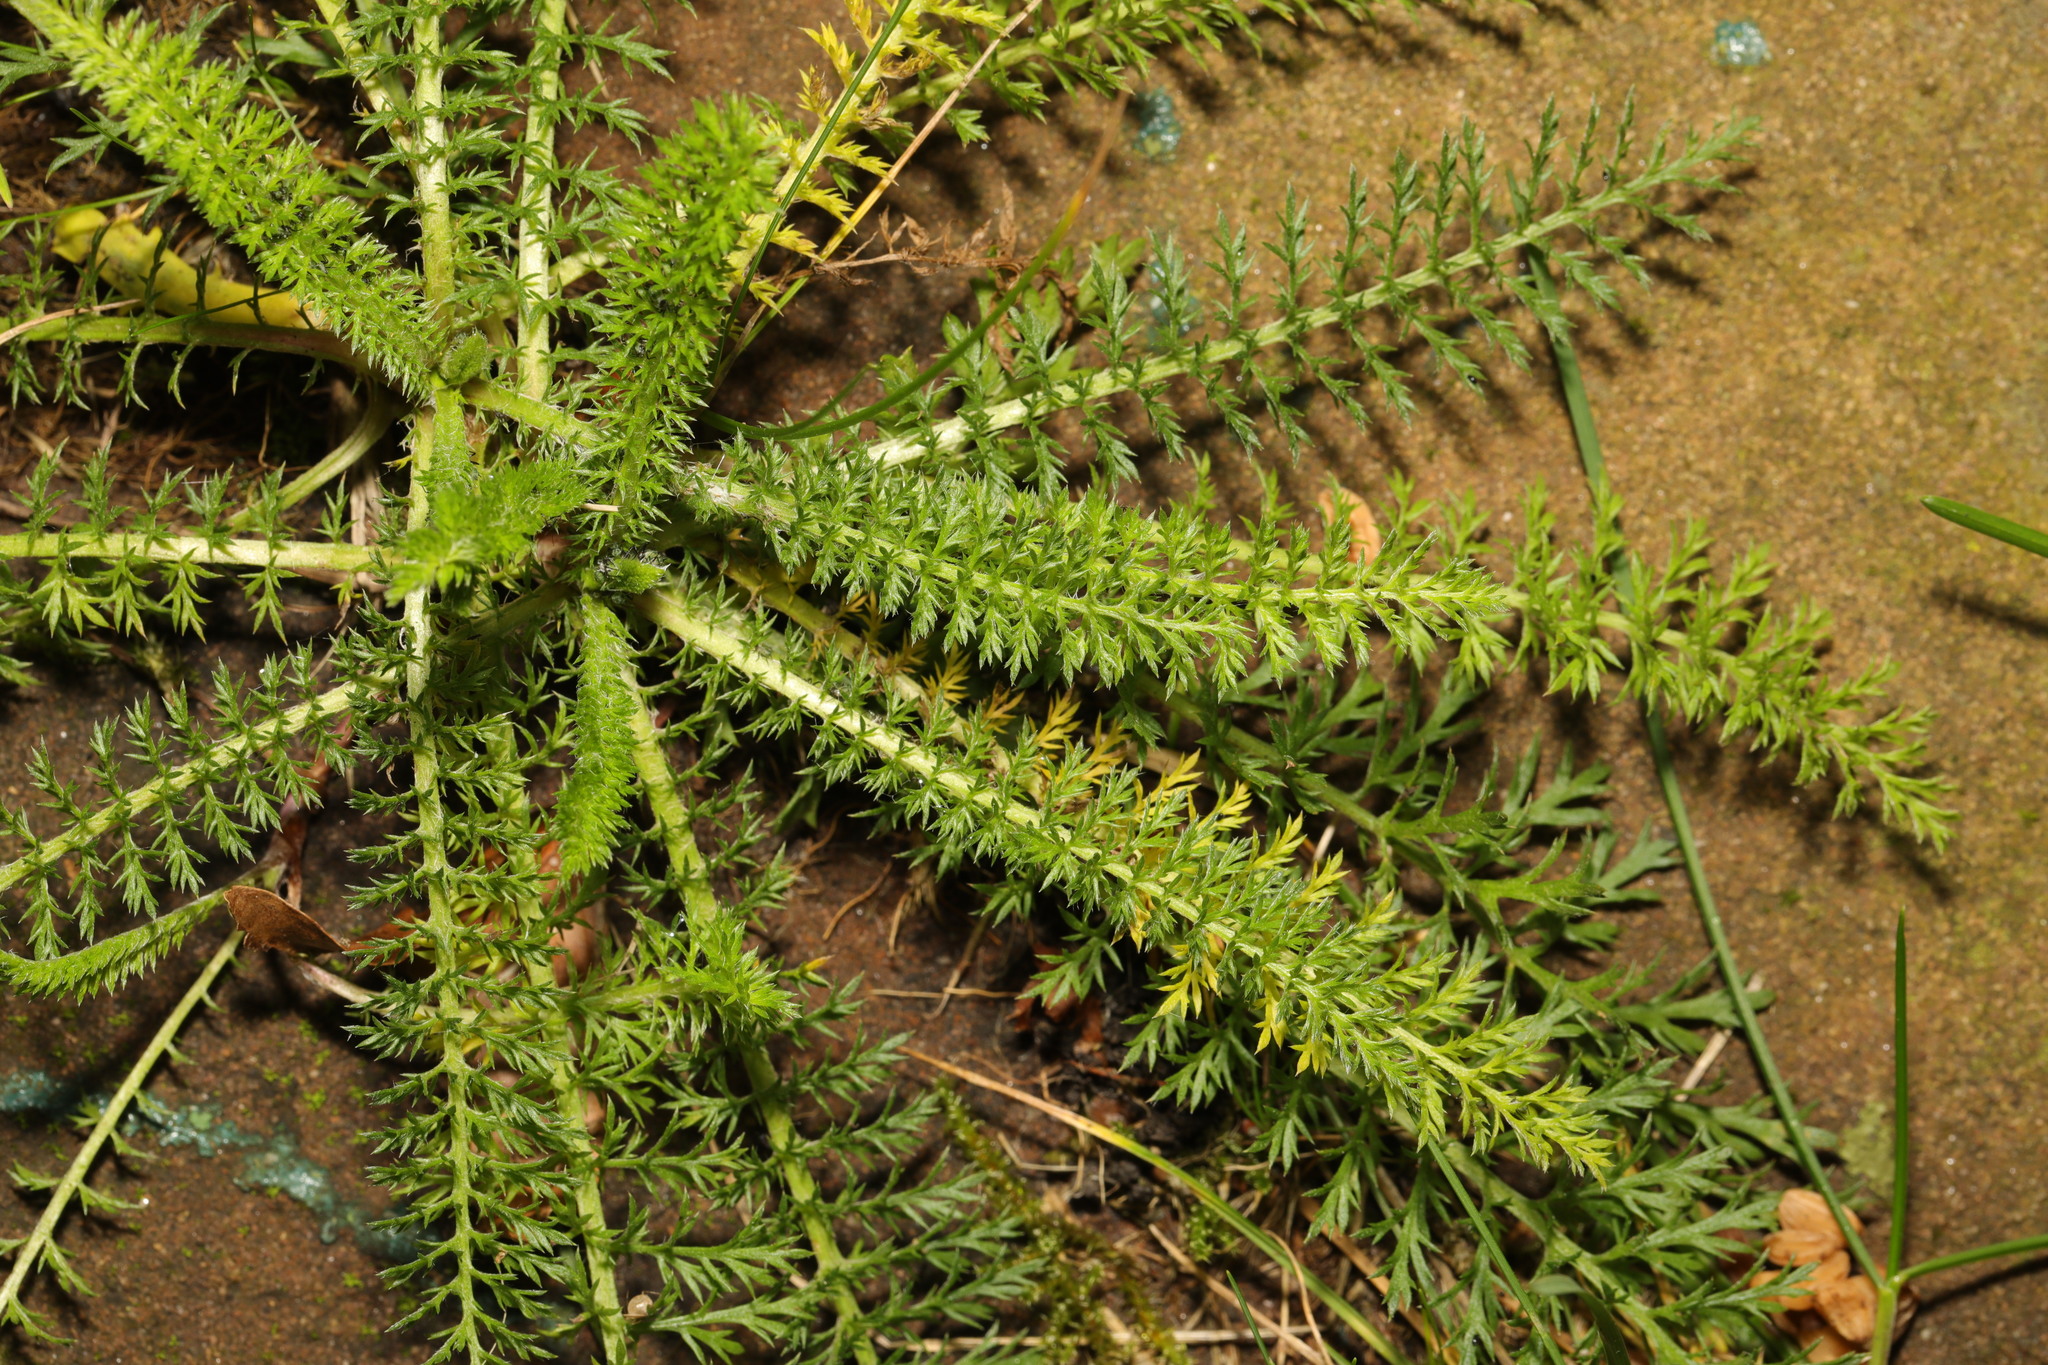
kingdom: Plantae
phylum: Tracheophyta
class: Magnoliopsida
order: Asterales
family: Asteraceae
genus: Achillea
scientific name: Achillea millefolium
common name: Yarrow
